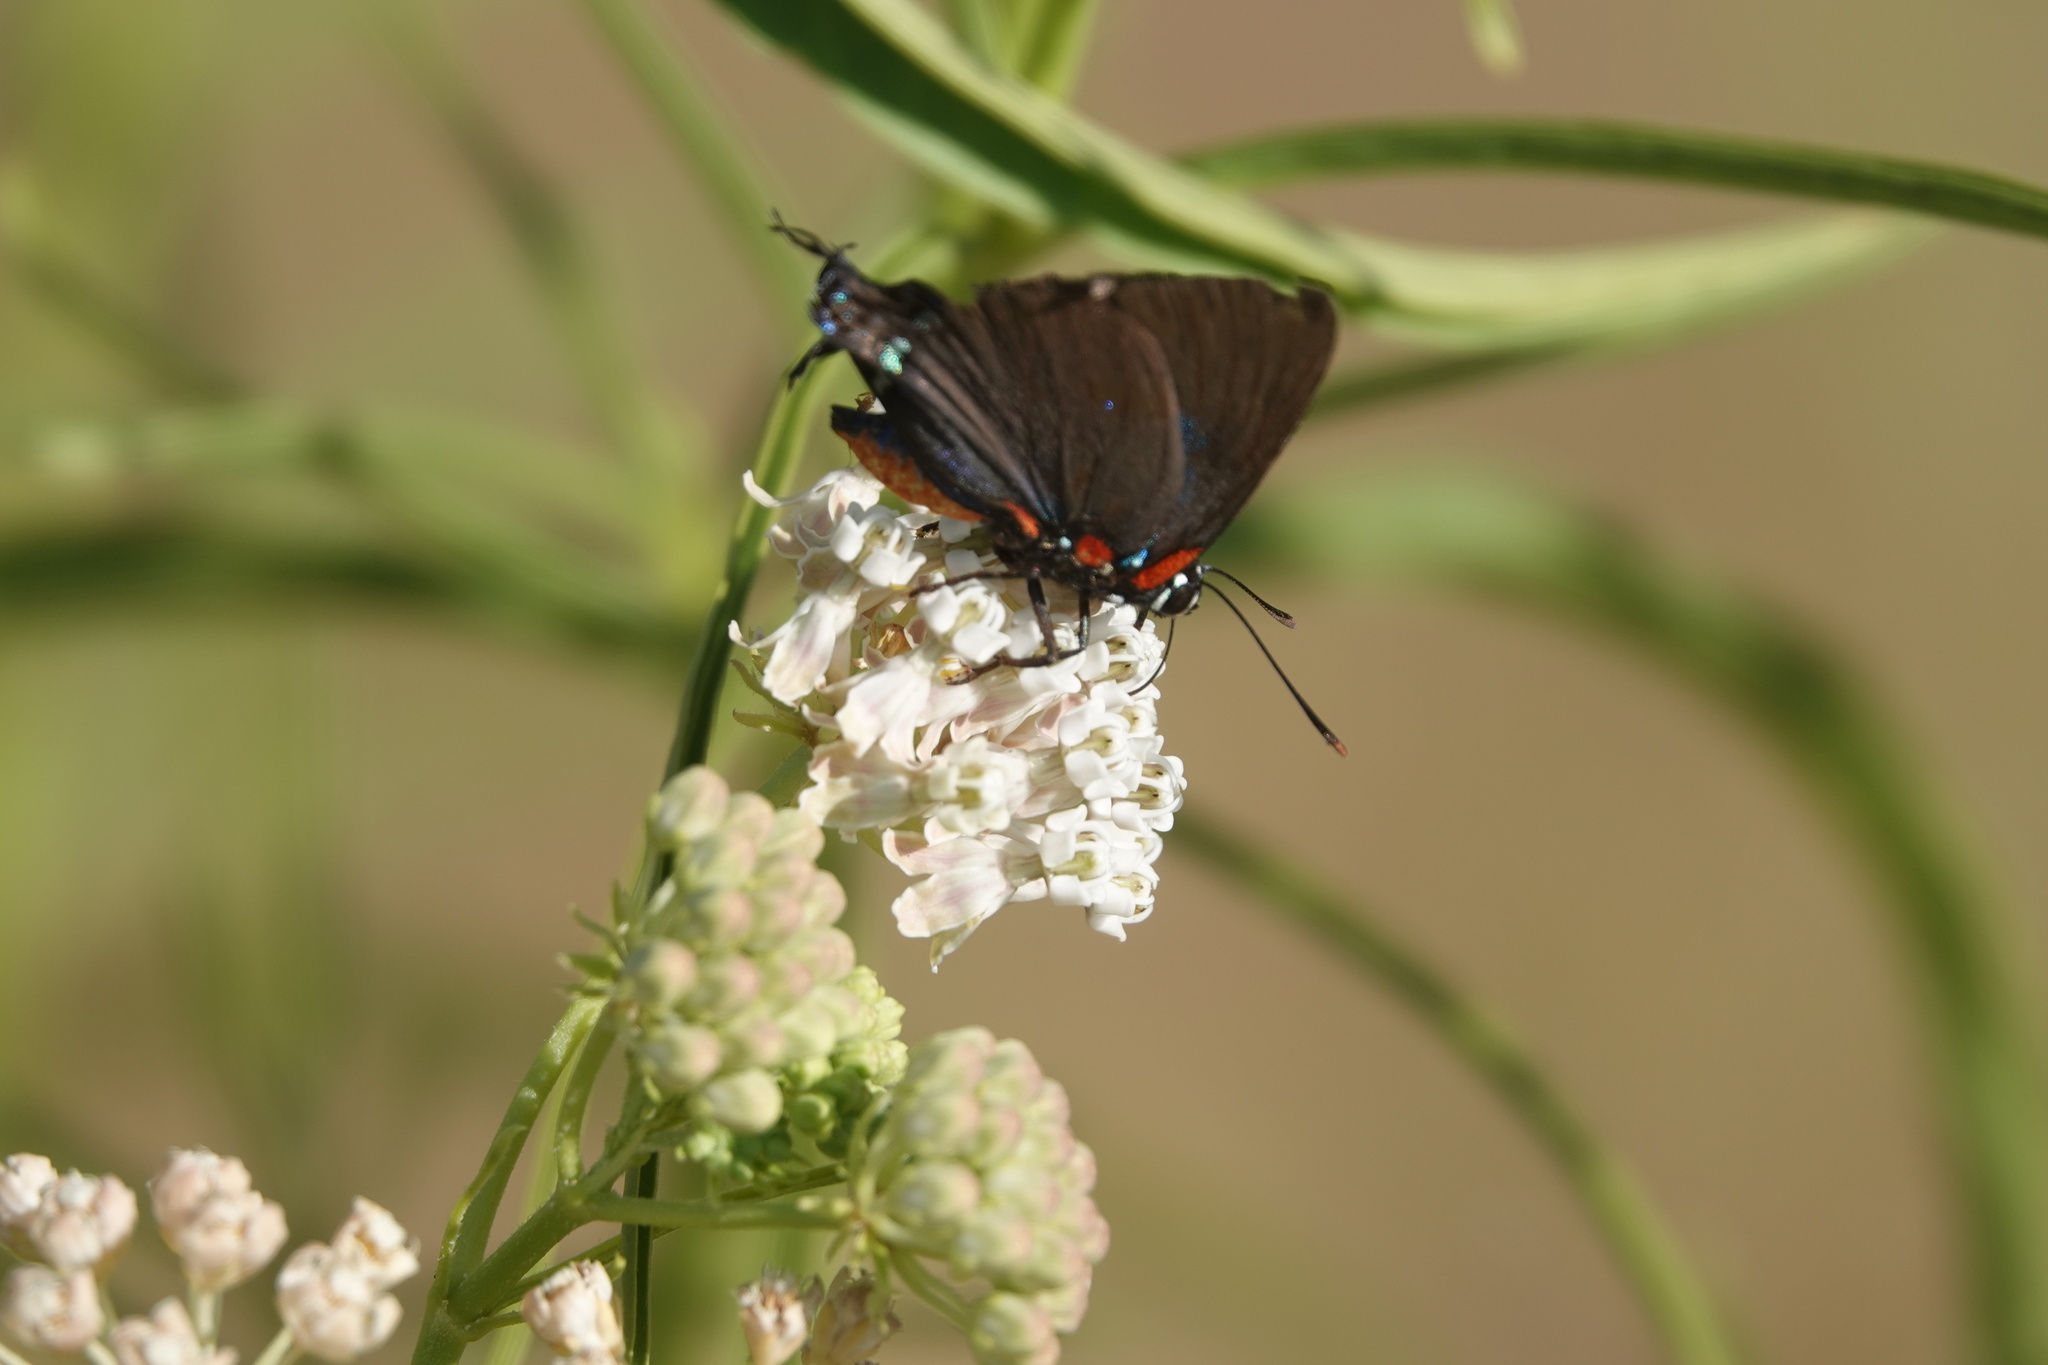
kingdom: Animalia
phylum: Arthropoda
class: Insecta
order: Lepidoptera
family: Lycaenidae
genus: Atlides
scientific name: Atlides halesus
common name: Great purple hairstreak
